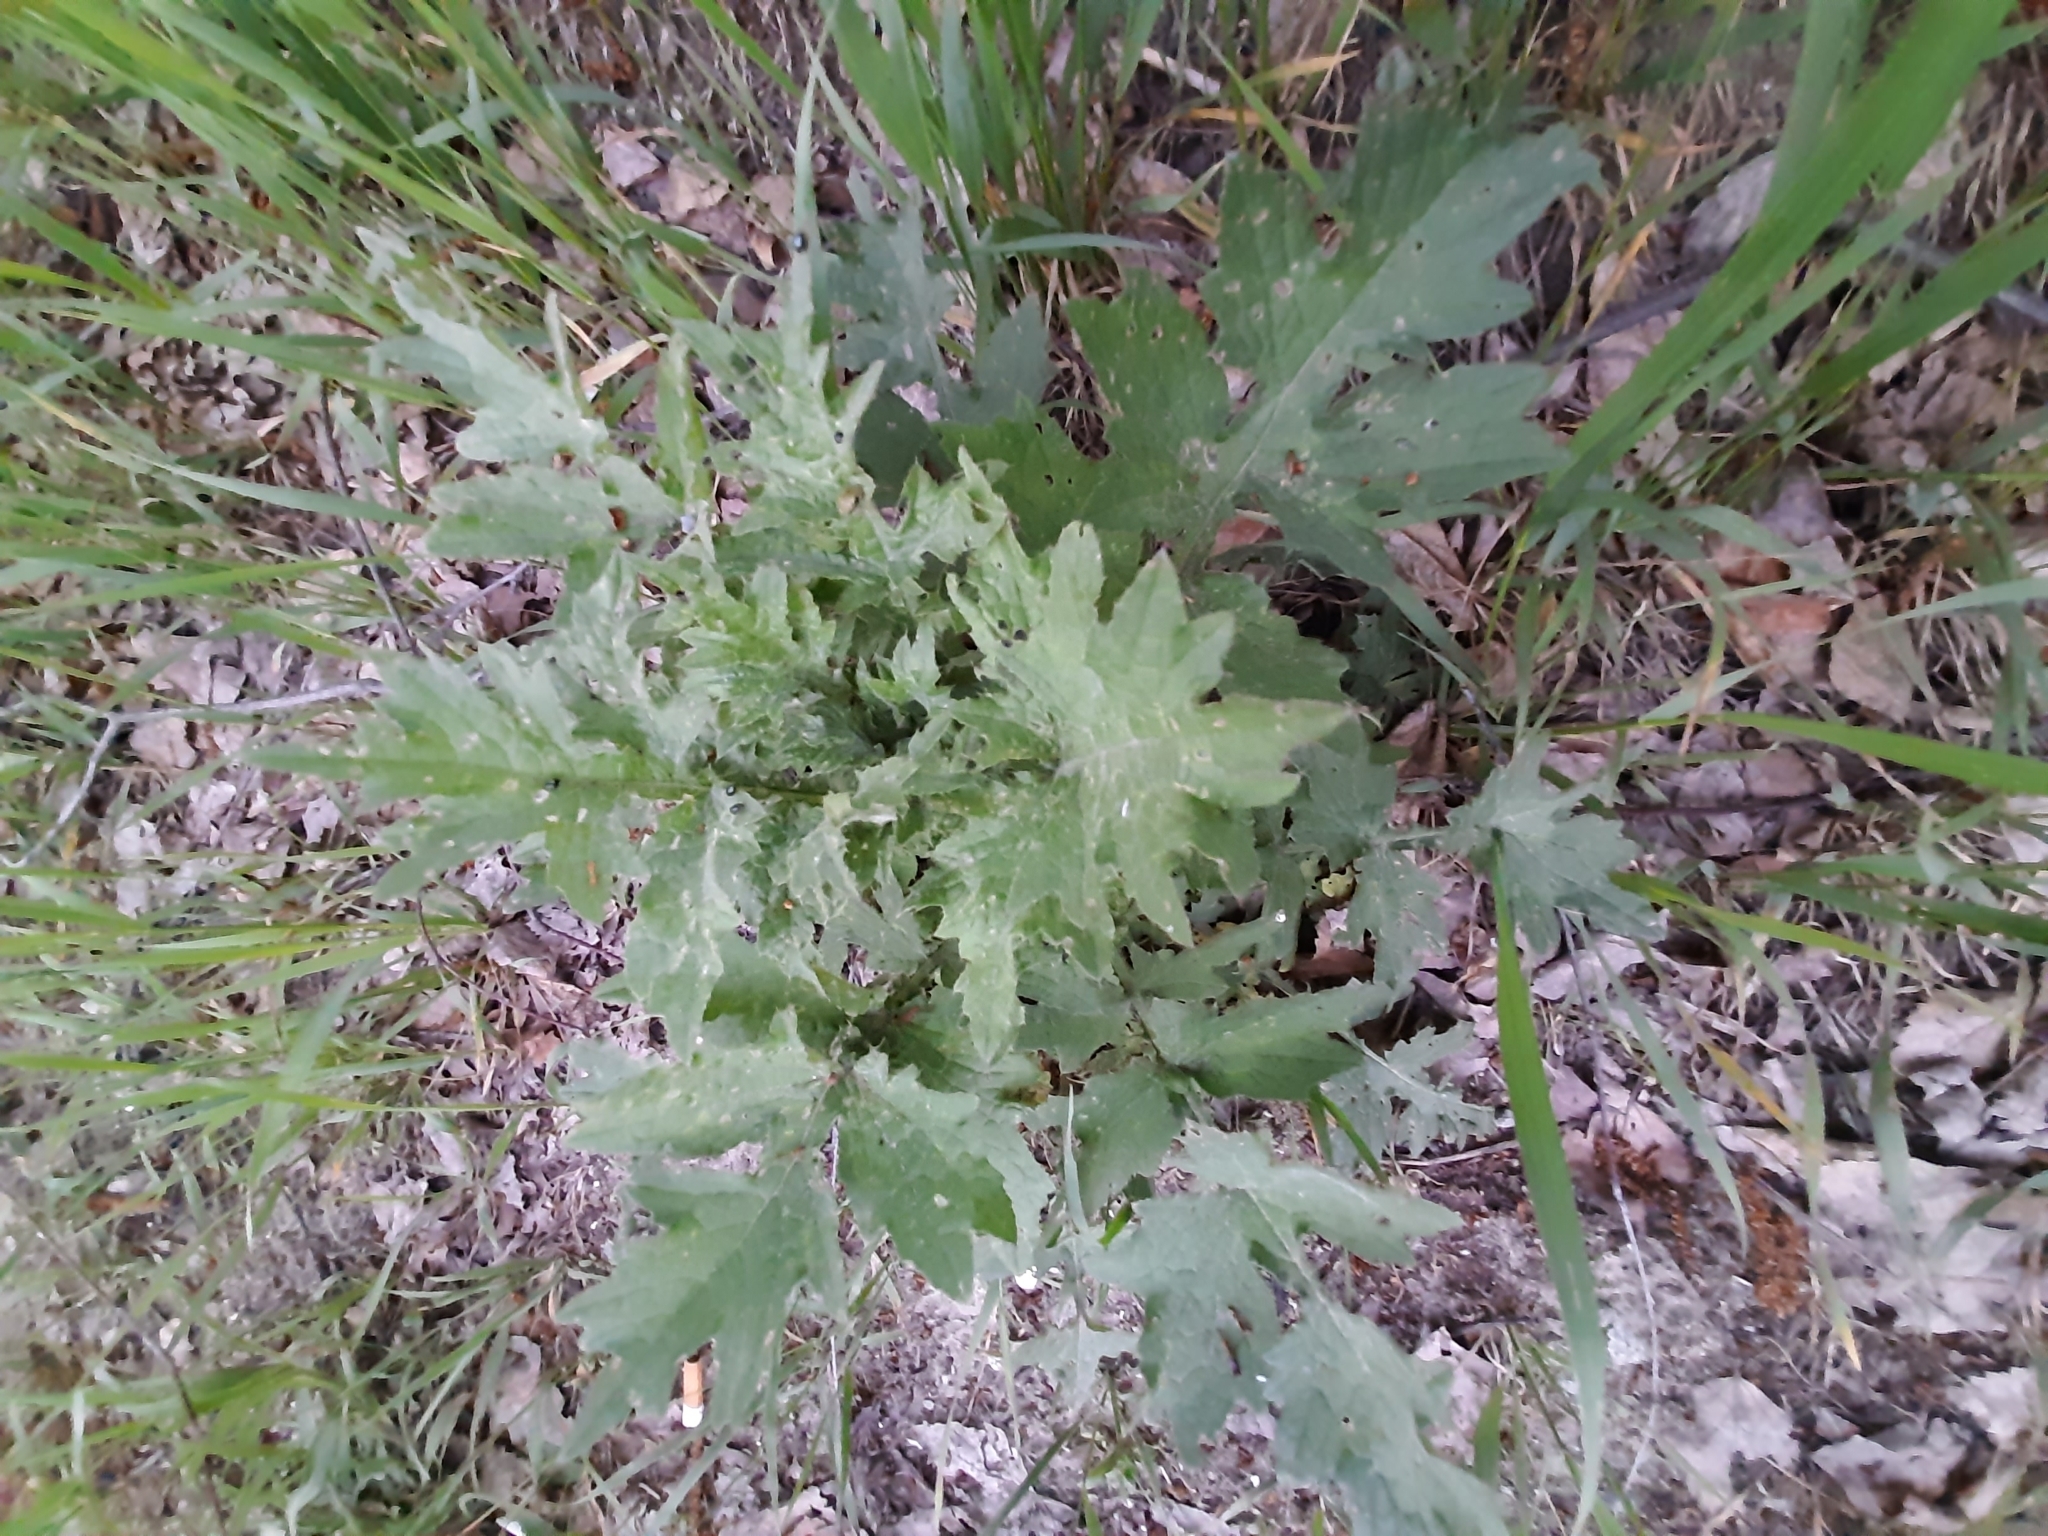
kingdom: Plantae
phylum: Tracheophyta
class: Magnoliopsida
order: Asterales
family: Asteraceae
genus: Carduus
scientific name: Carduus crispus
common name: Welted thistle
